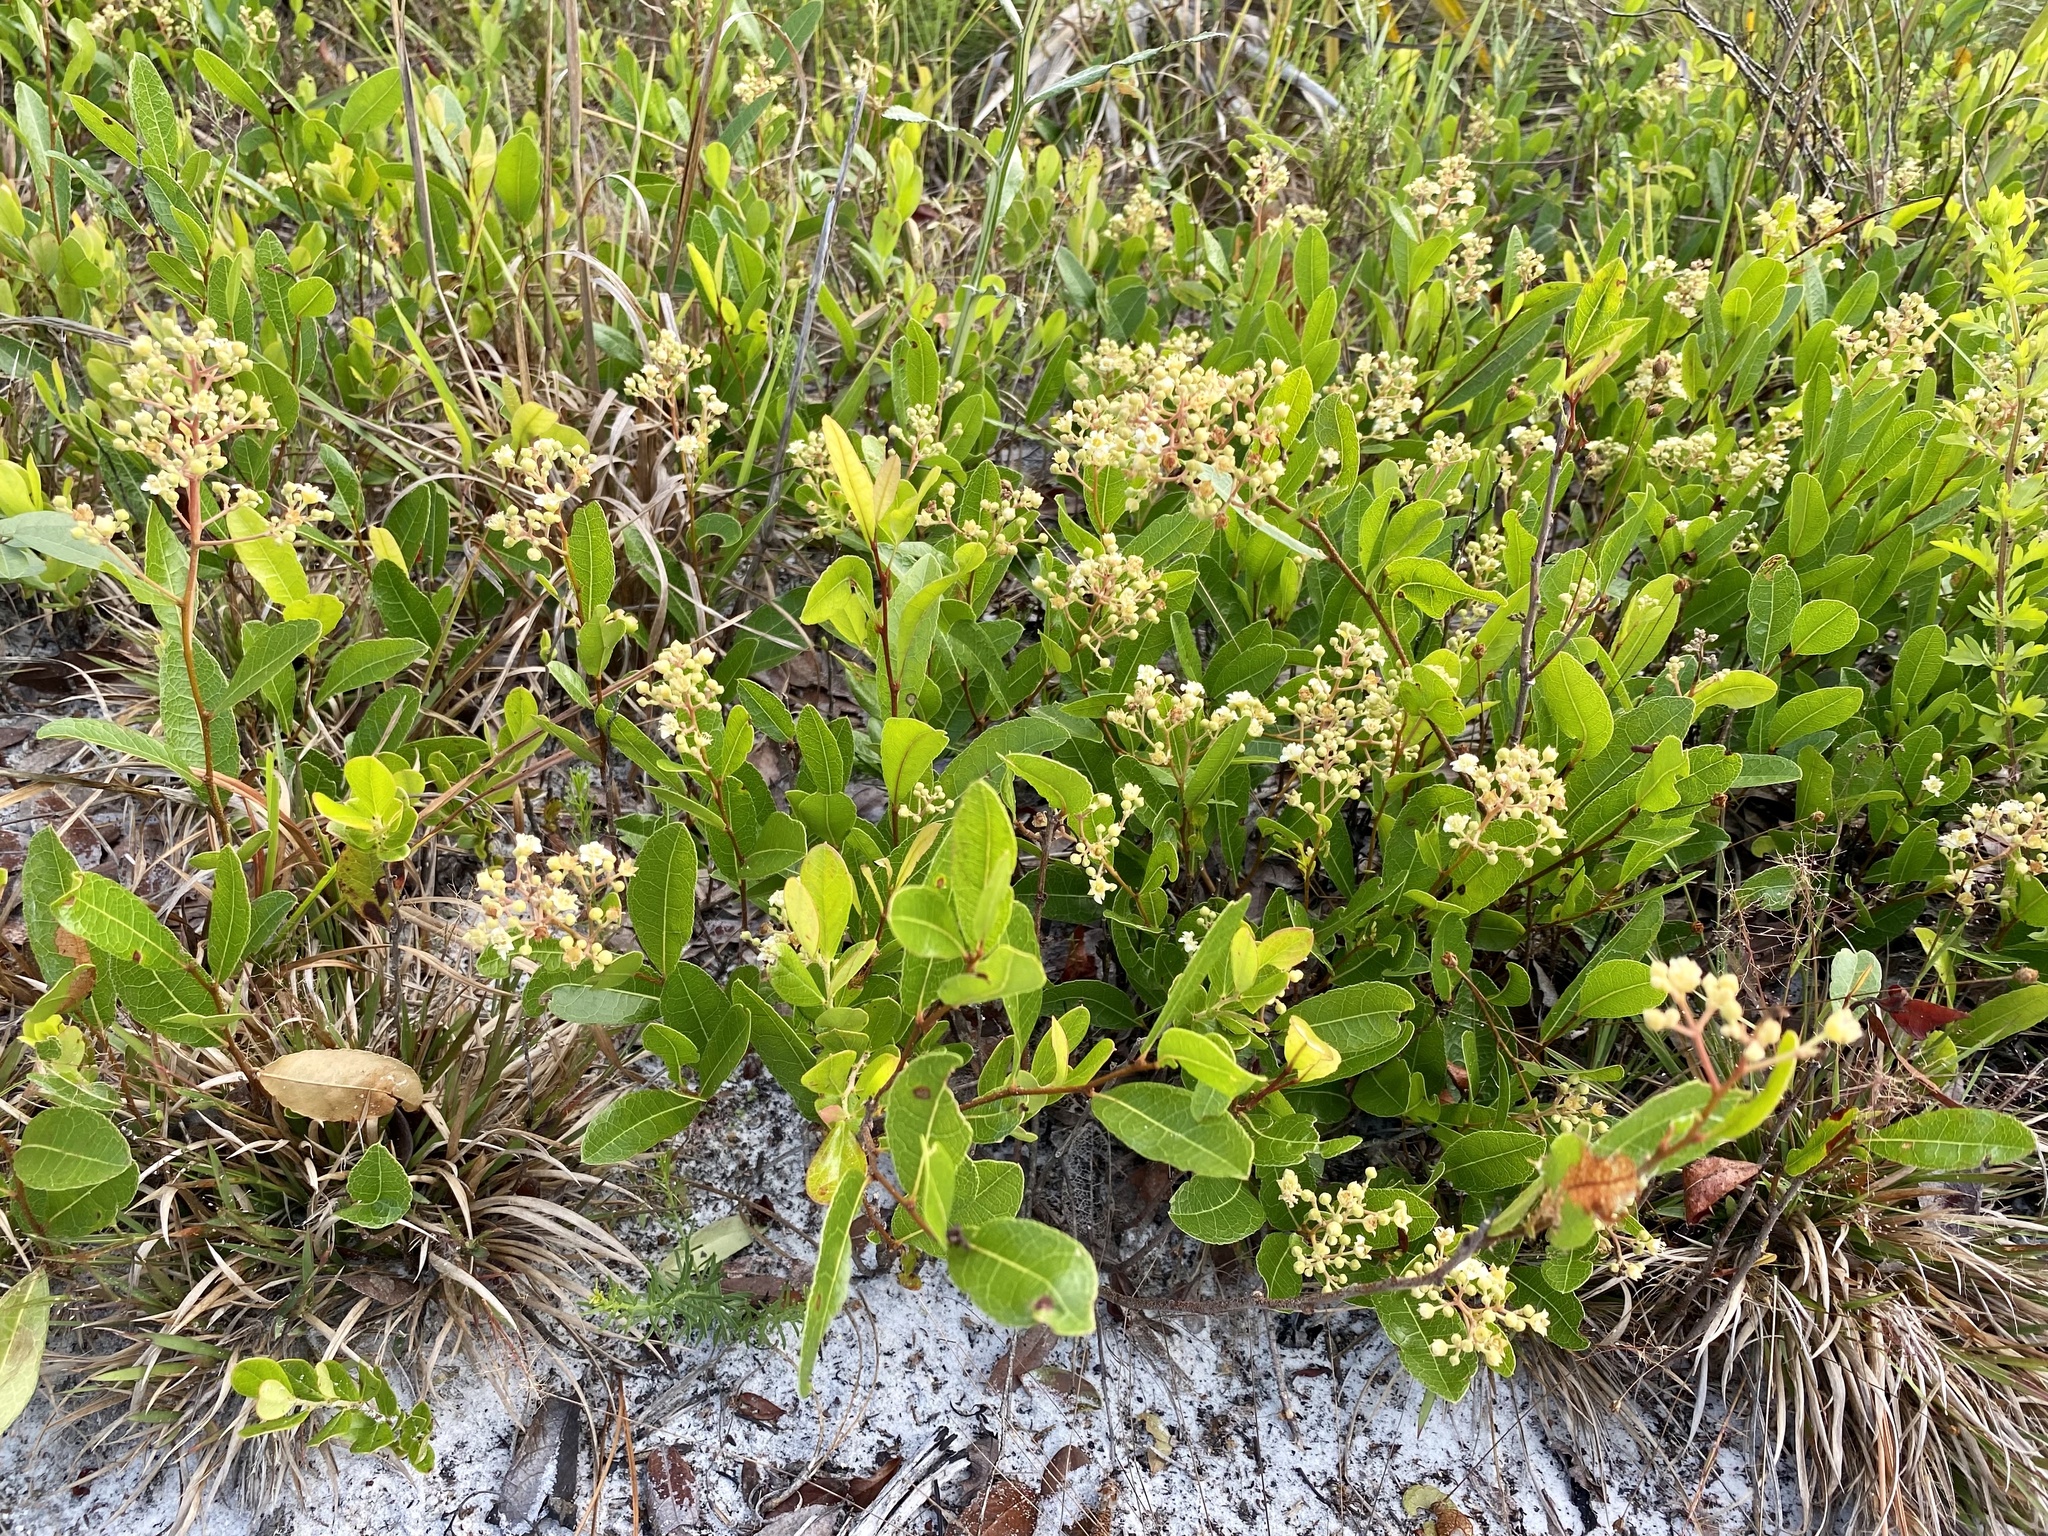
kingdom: Plantae
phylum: Tracheophyta
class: Magnoliopsida
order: Malpighiales
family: Chrysobalanaceae
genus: Geobalanus
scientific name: Geobalanus oblongifolius
